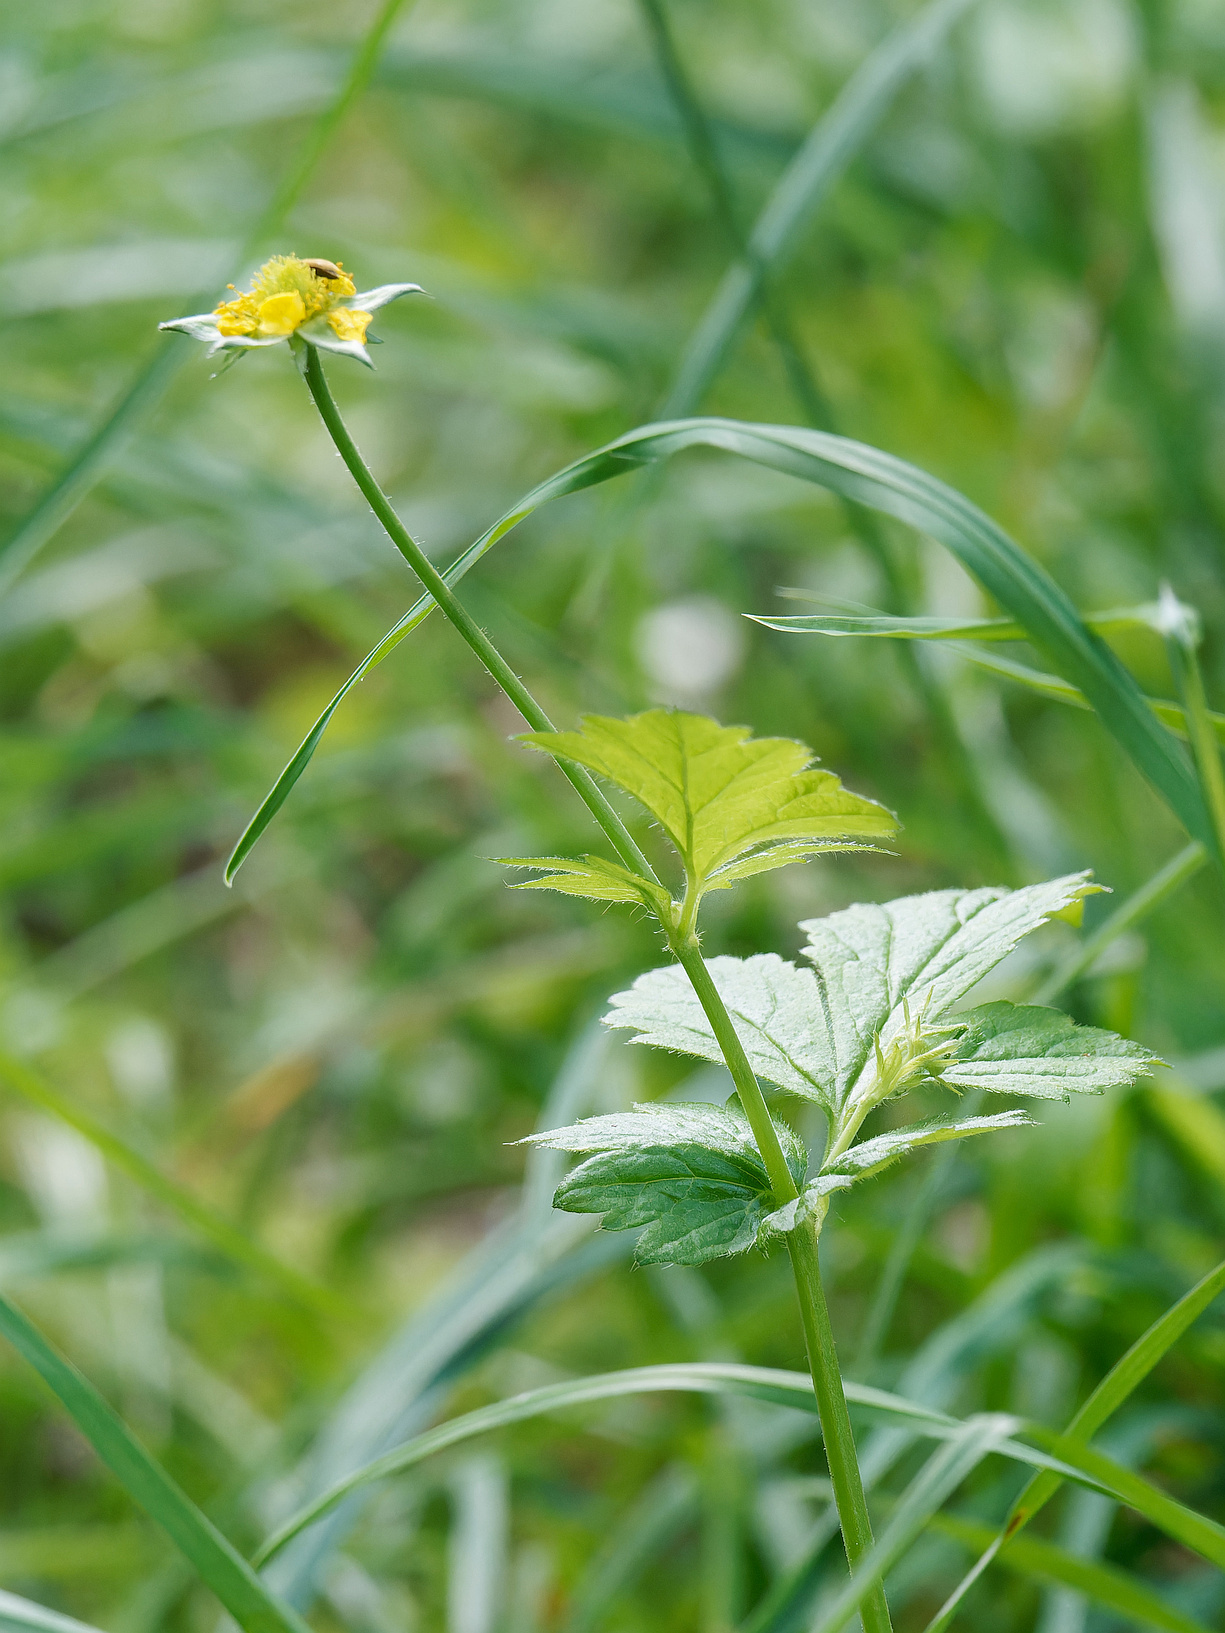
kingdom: Plantae
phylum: Tracheophyta
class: Magnoliopsida
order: Rosales
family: Rosaceae
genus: Geum
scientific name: Geum urbanum
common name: Wood avens
